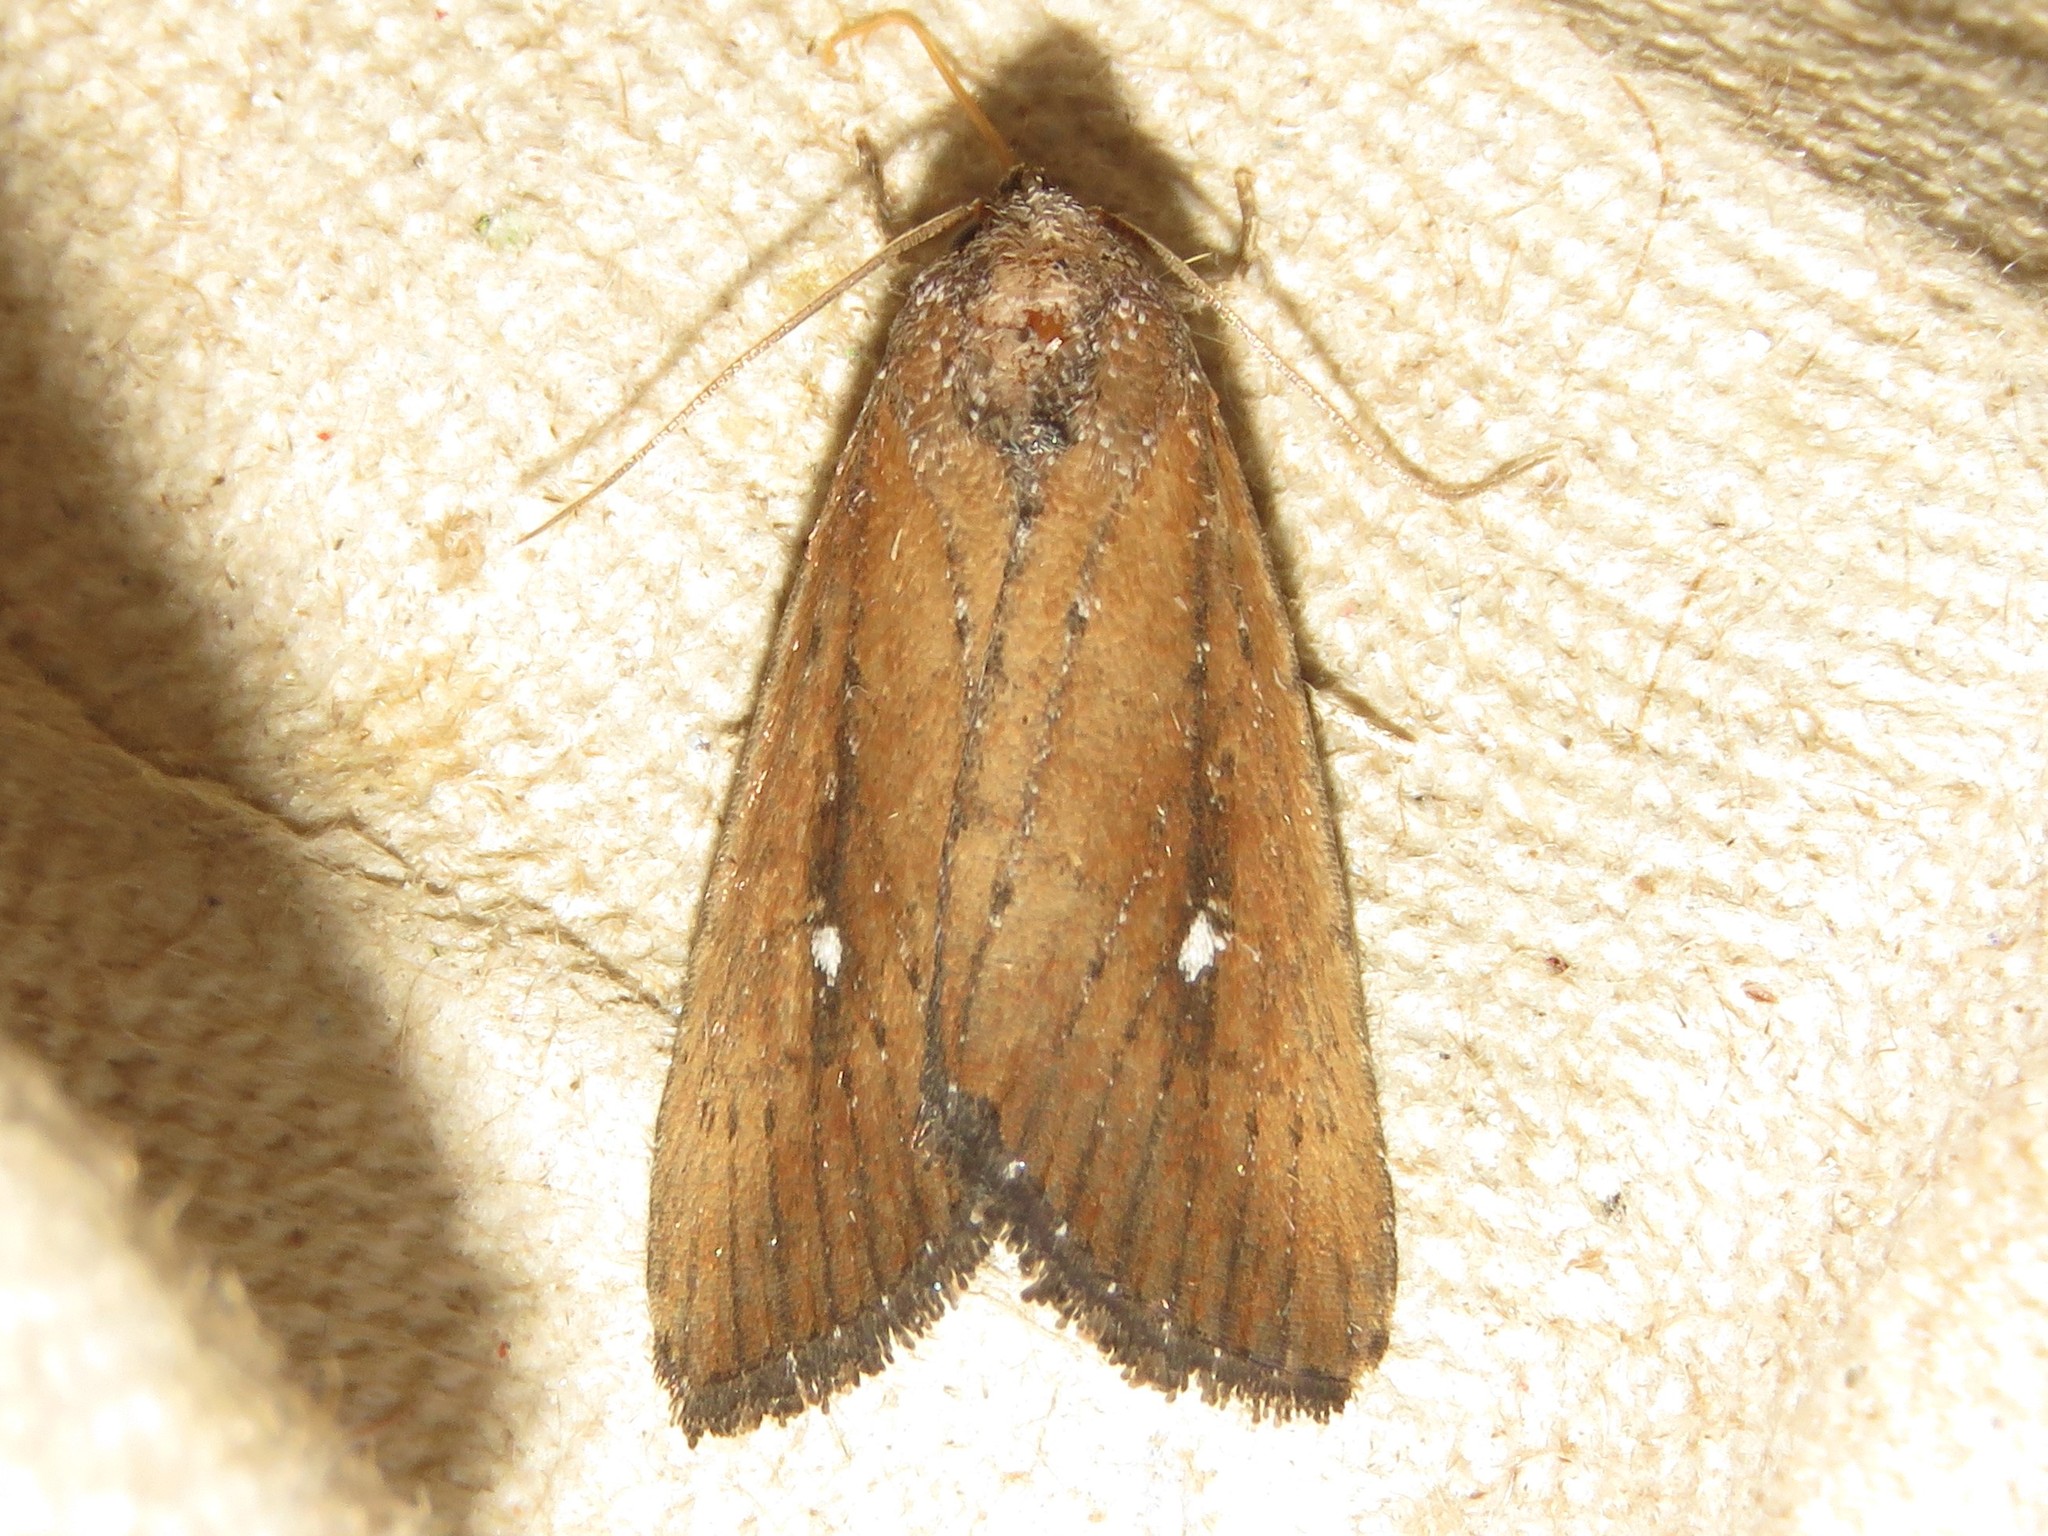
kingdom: Animalia
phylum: Arthropoda
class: Insecta
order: Lepidoptera
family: Noctuidae
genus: Condica
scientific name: Condica videns
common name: White-dotted groundling
